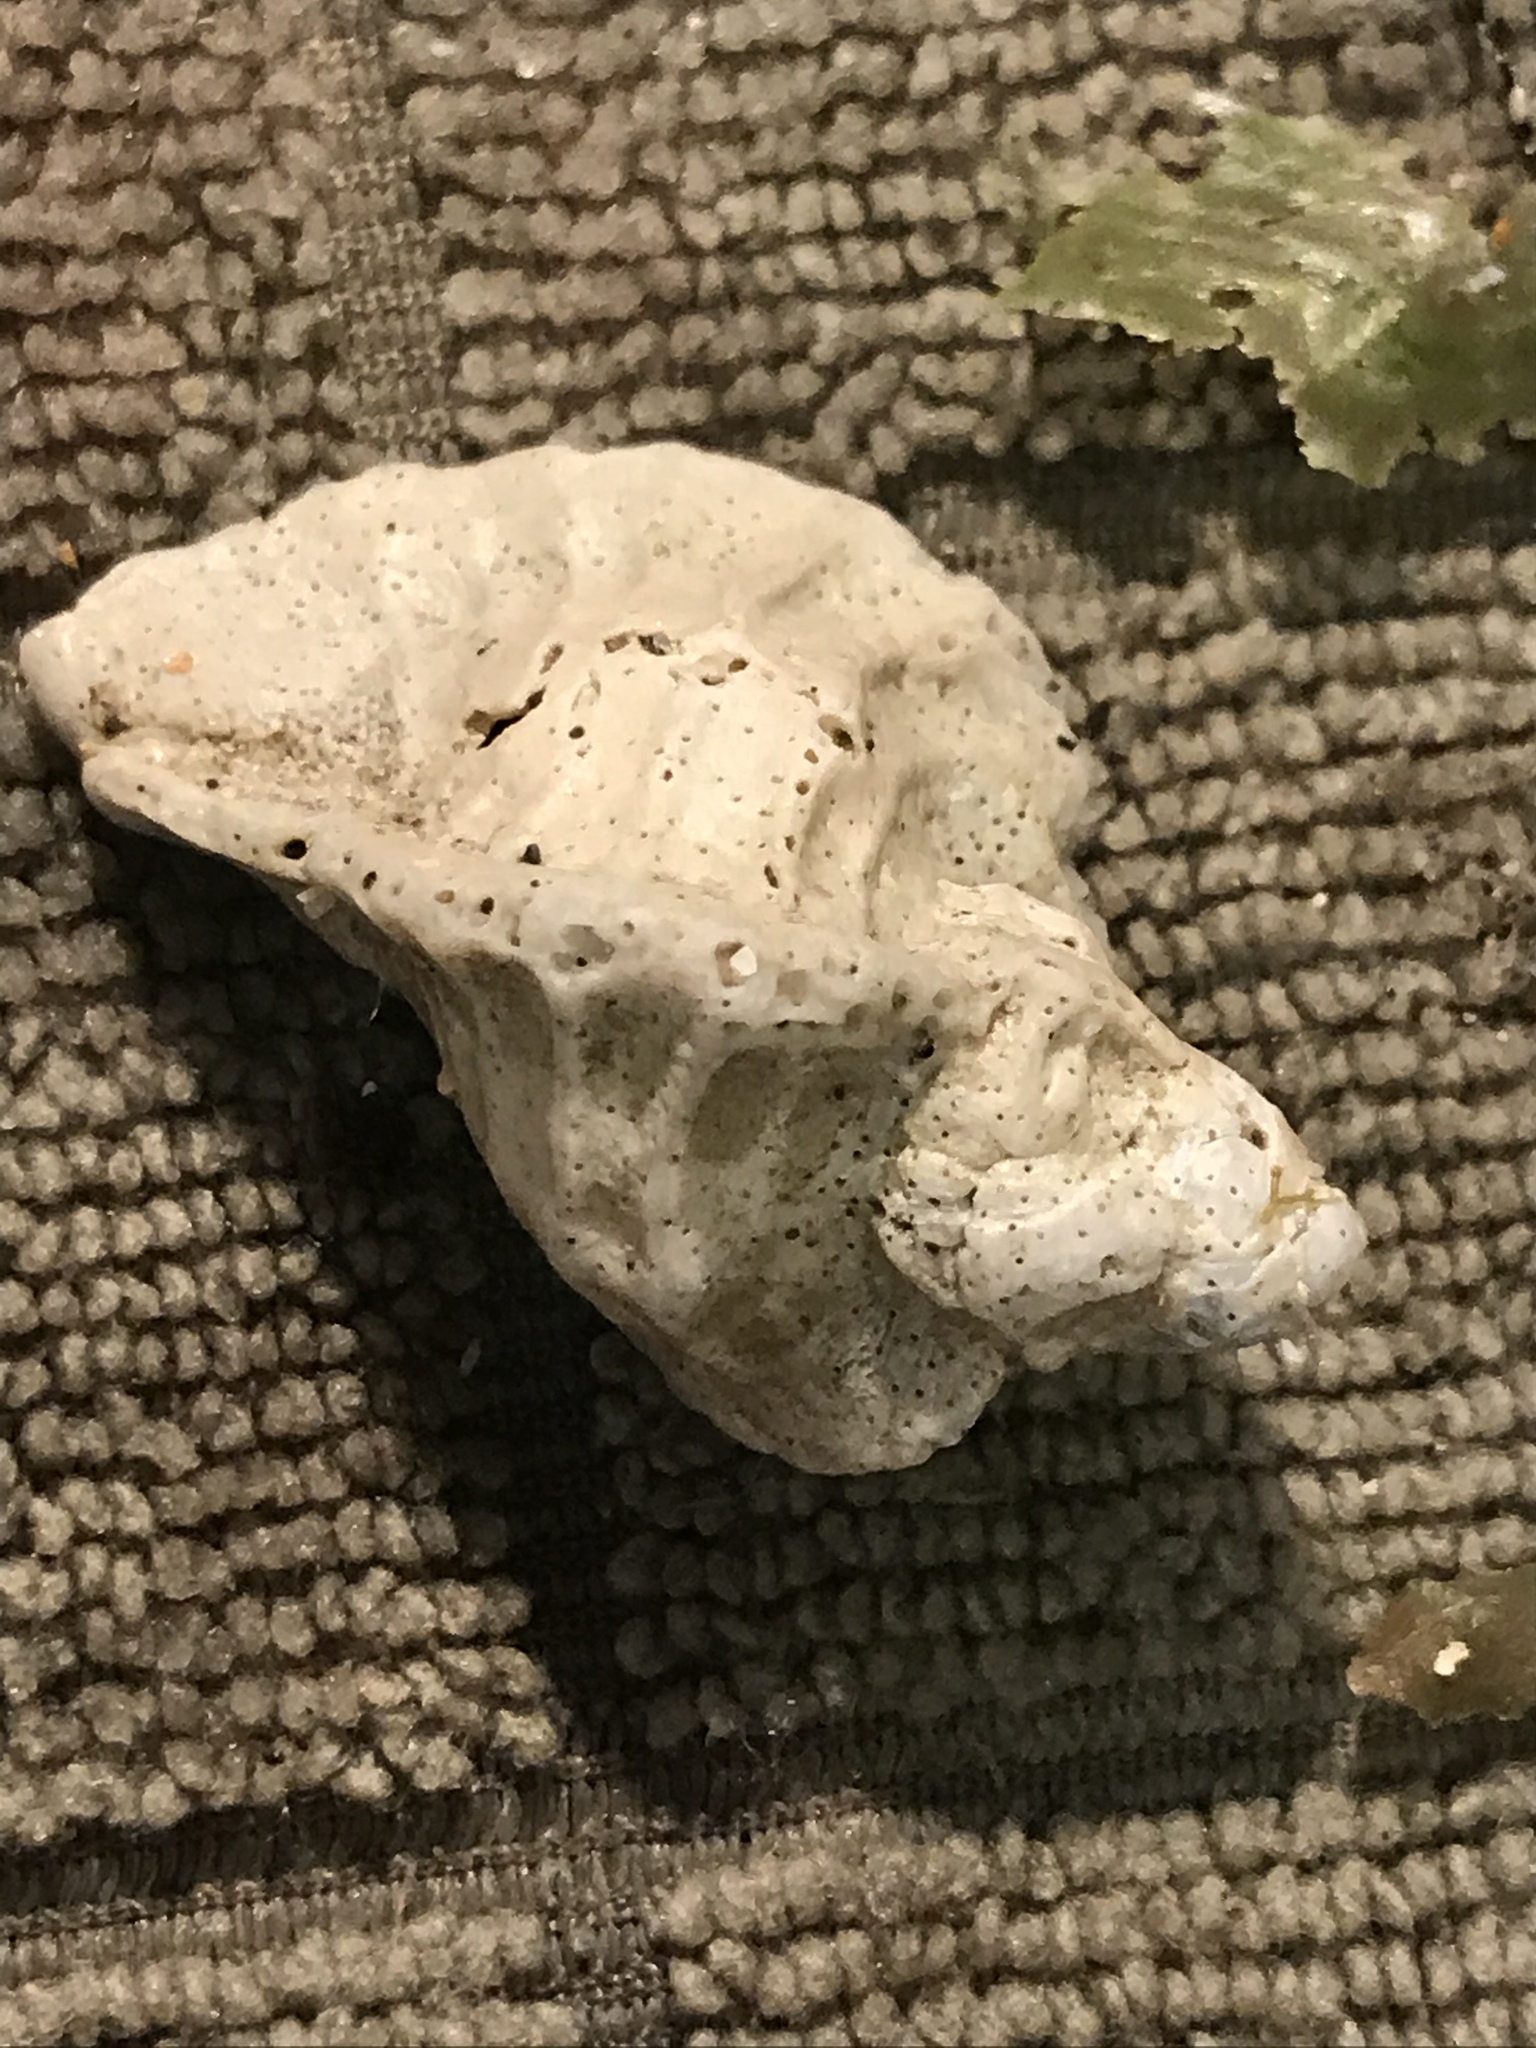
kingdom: Animalia
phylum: Mollusca
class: Gastropoda
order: Neogastropoda
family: Muricidae
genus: Ceratostoma
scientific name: Ceratostoma foliatum
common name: Foliate thorn purpura
